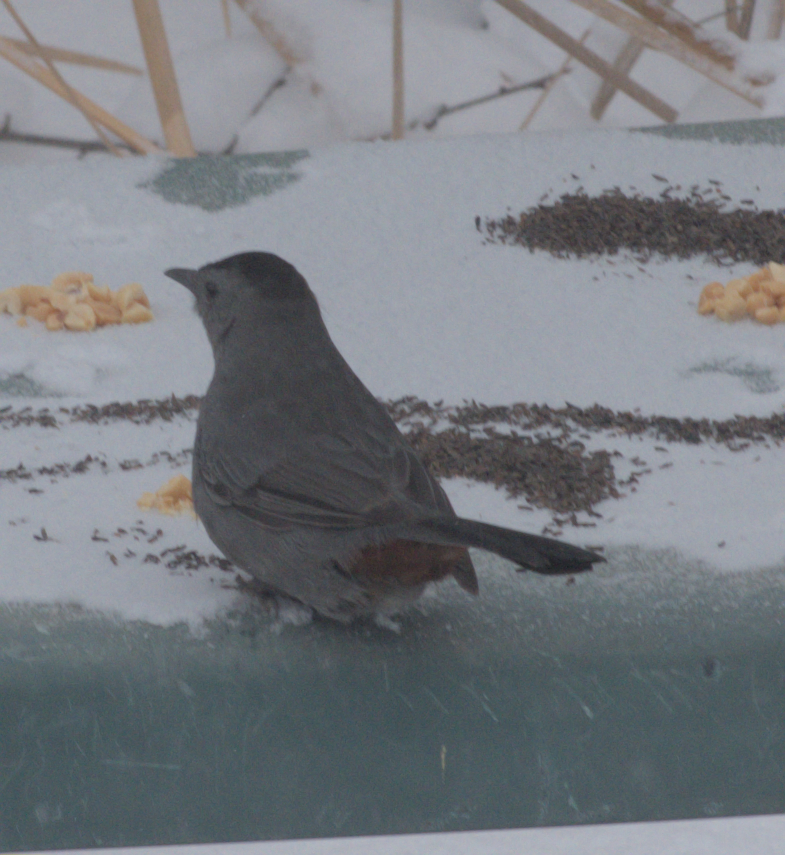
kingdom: Animalia
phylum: Chordata
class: Aves
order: Passeriformes
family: Mimidae
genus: Dumetella
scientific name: Dumetella carolinensis
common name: Gray catbird
